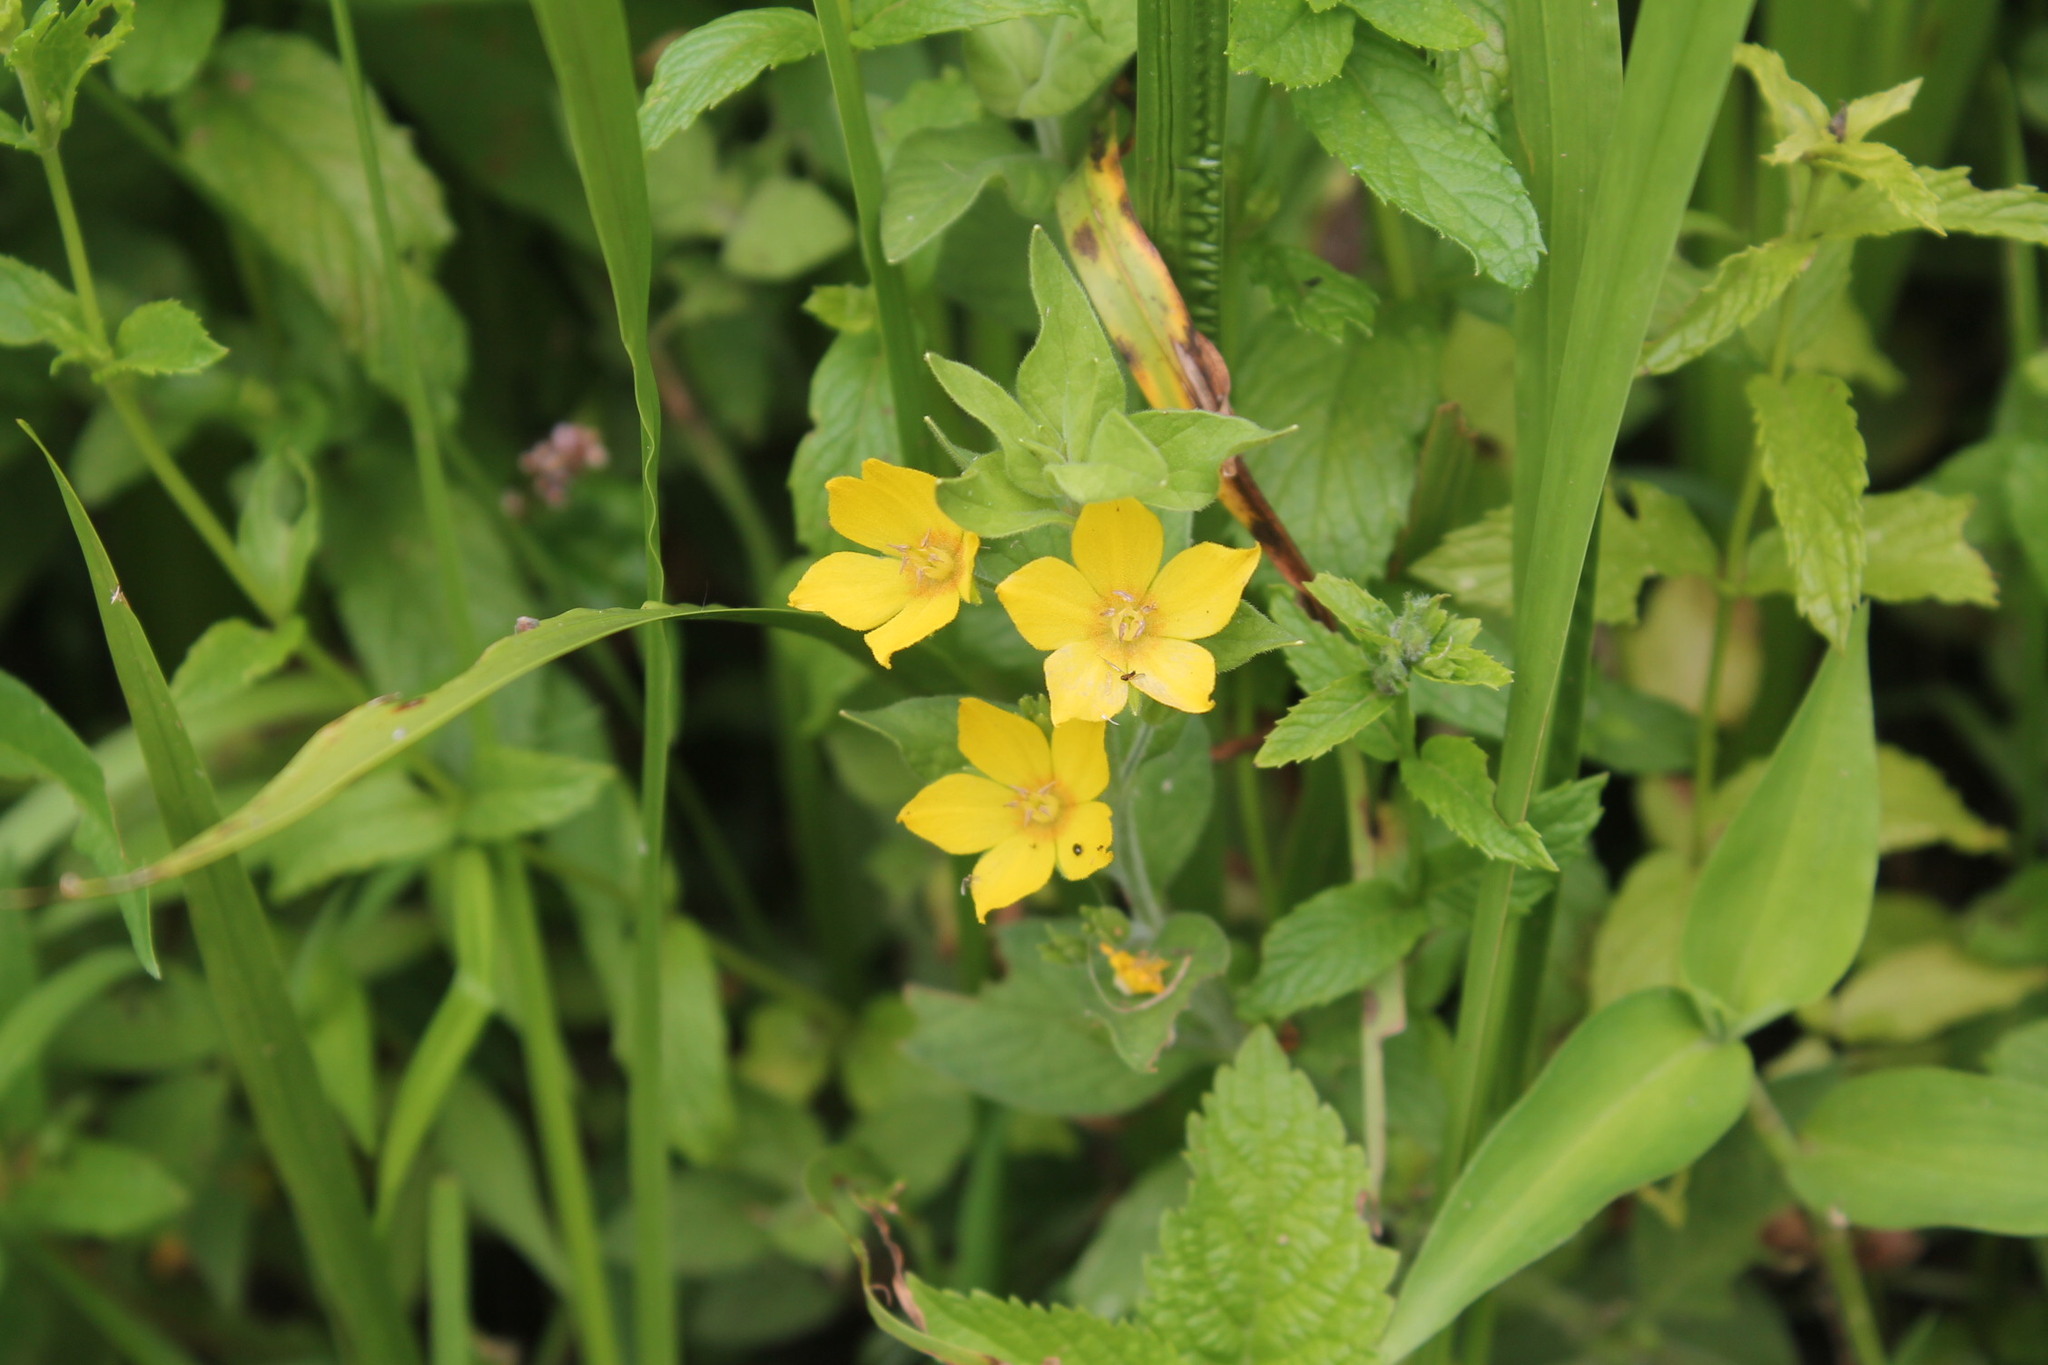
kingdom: Plantae
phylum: Tracheophyta
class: Magnoliopsida
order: Ericales
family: Primulaceae
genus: Lysimachia
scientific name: Lysimachia punctata
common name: Dotted loosestrife
